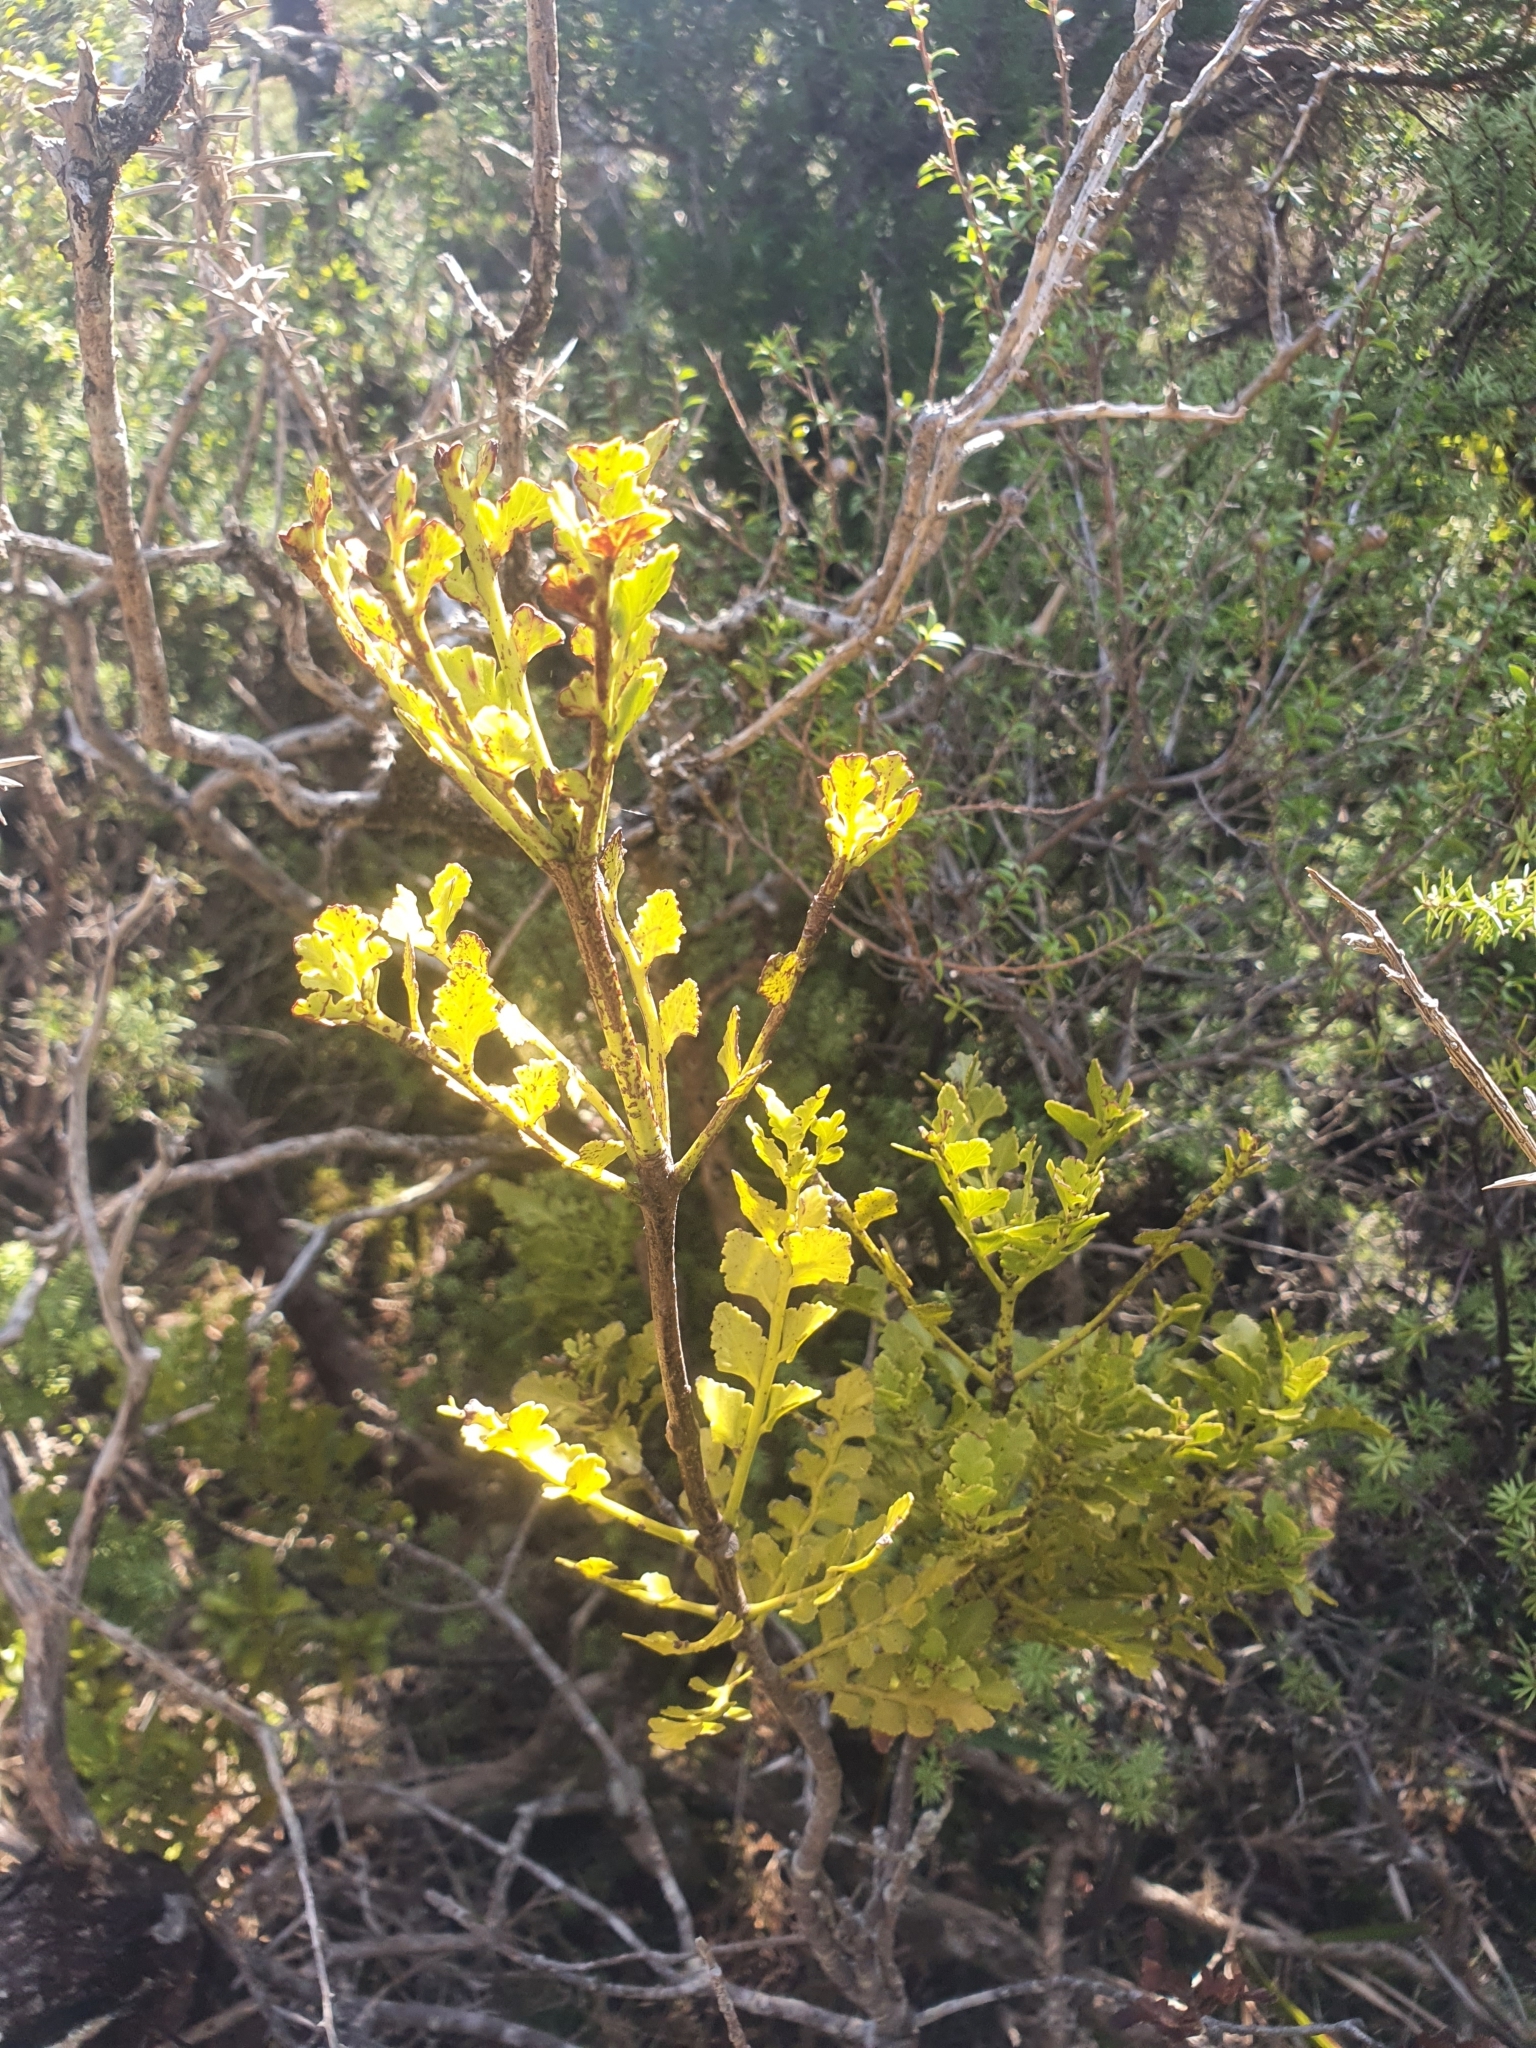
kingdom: Plantae
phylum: Tracheophyta
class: Pinopsida
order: Pinales
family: Phyllocladaceae
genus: Phyllocladus
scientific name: Phyllocladus trichomanoides
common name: Celery pine
